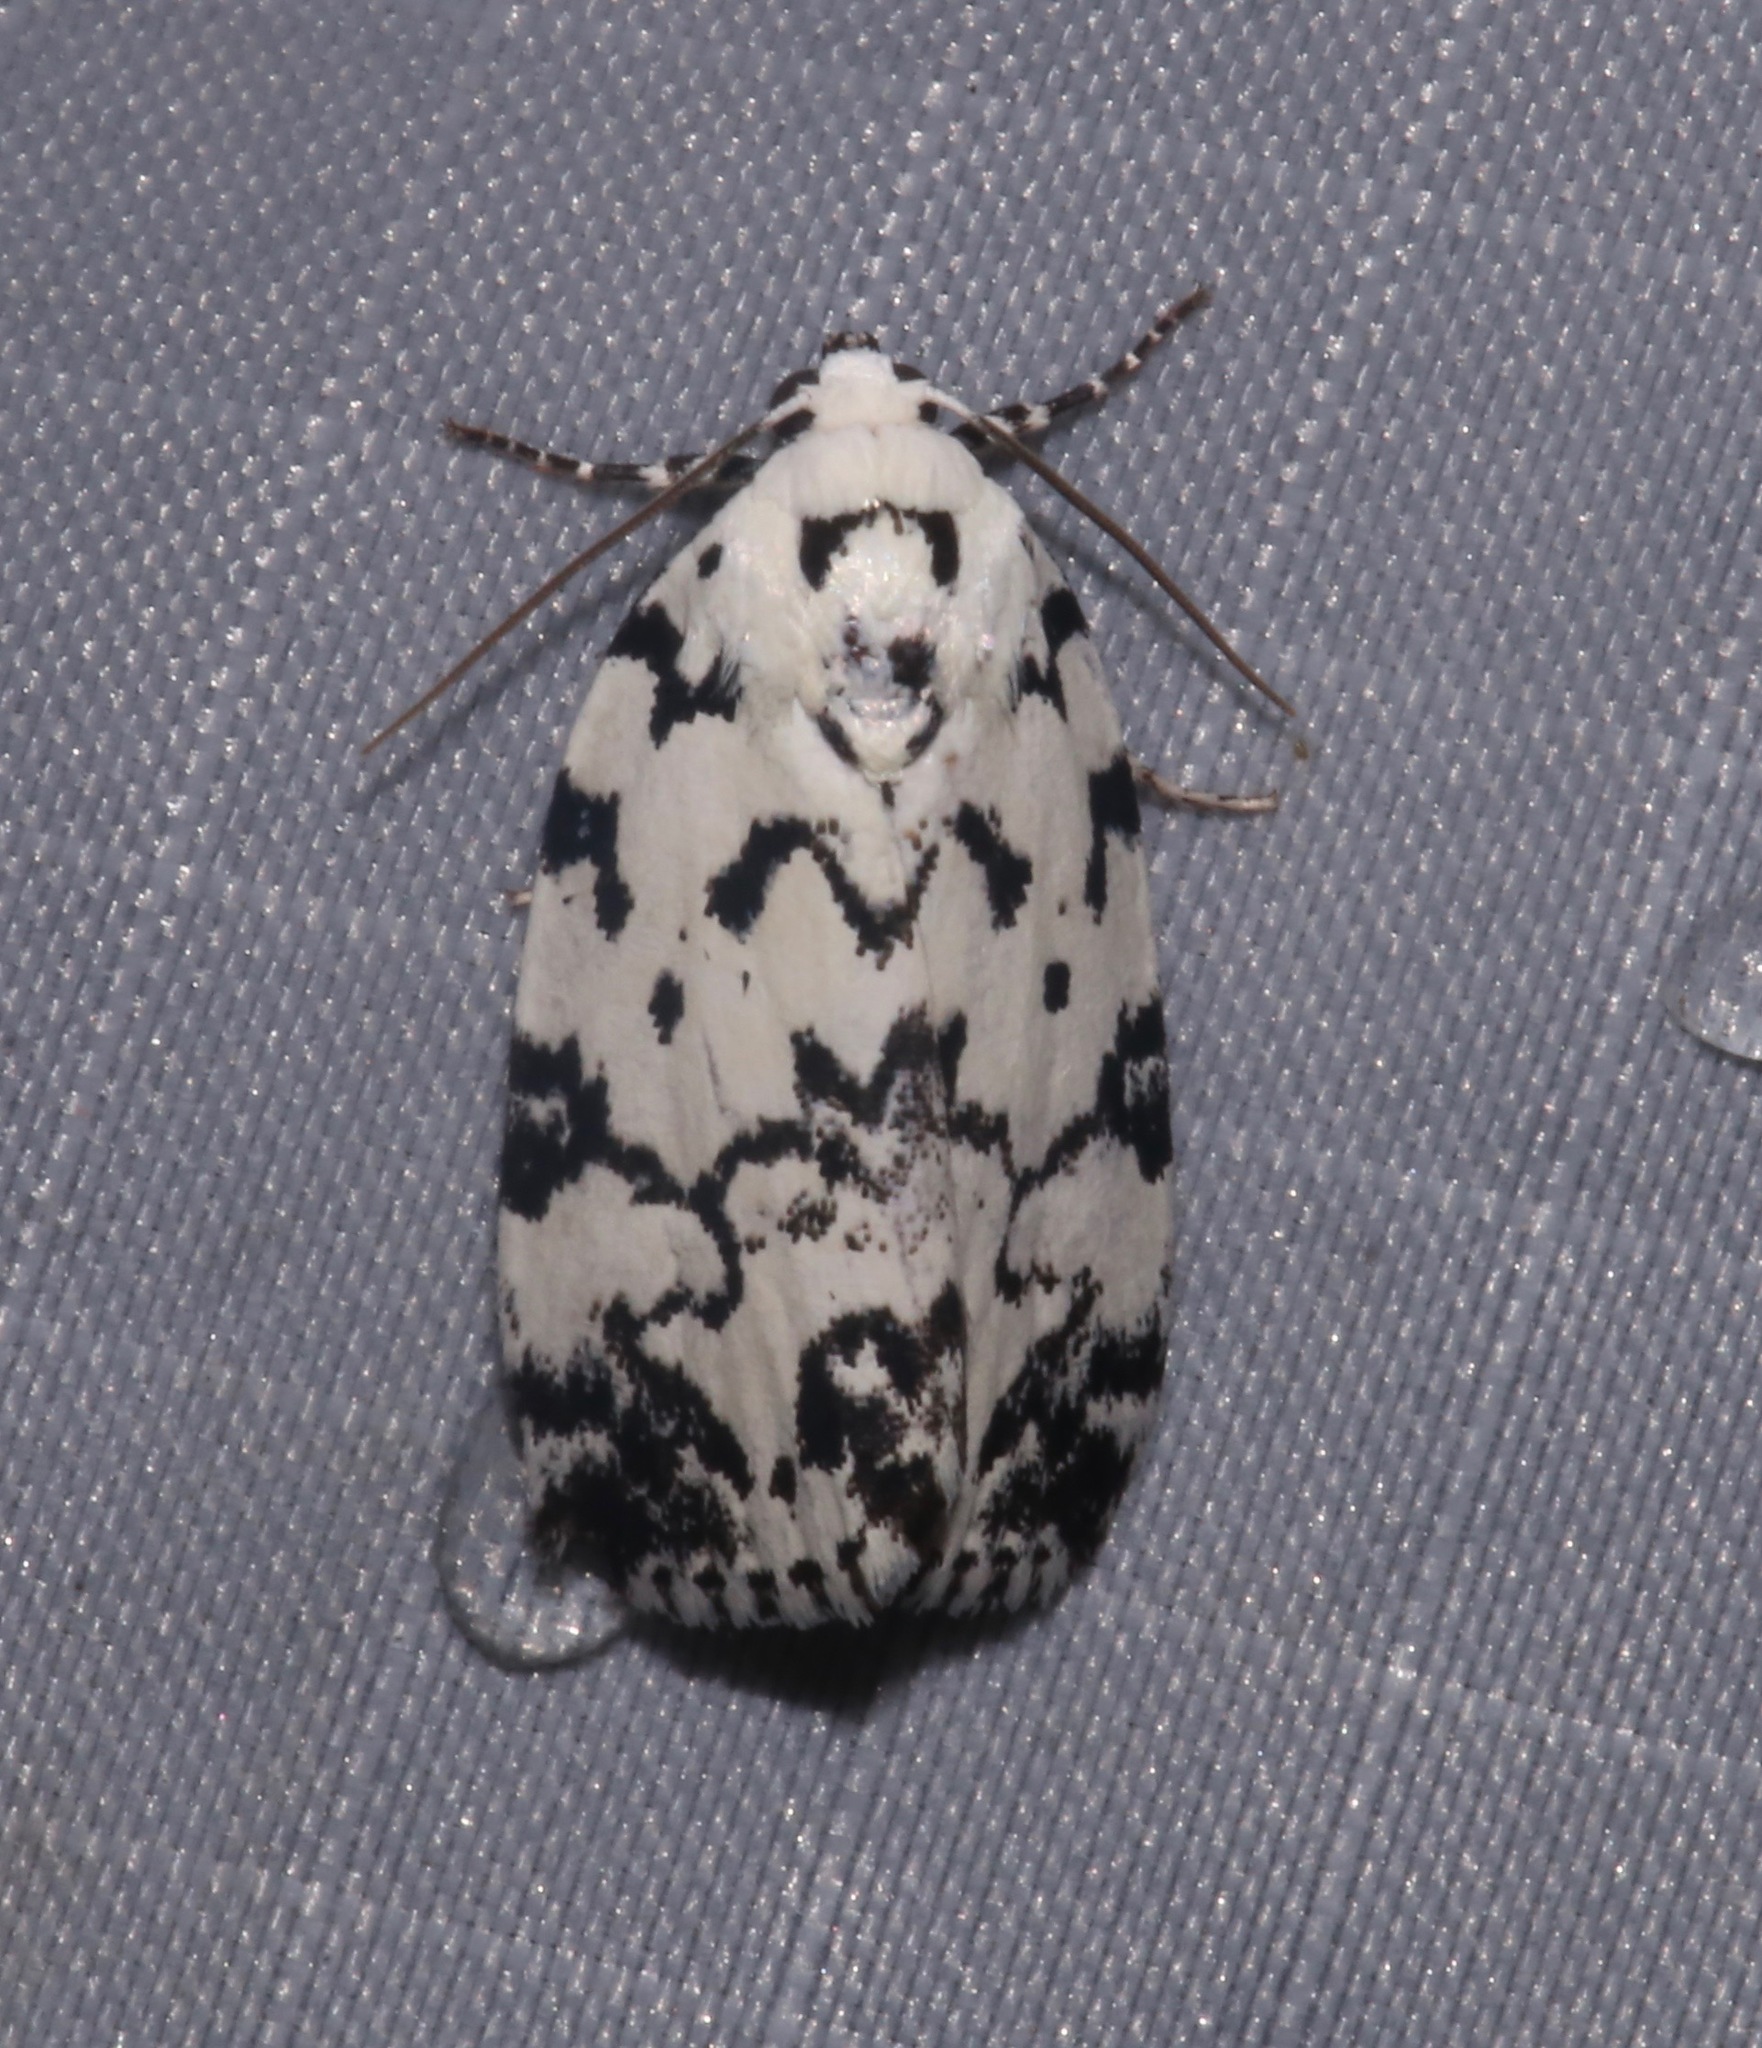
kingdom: Animalia
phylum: Arthropoda
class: Insecta
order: Lepidoptera
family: Noctuidae
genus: Polygrammate
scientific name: Polygrammate hebraeicum
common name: Hebrew moth
